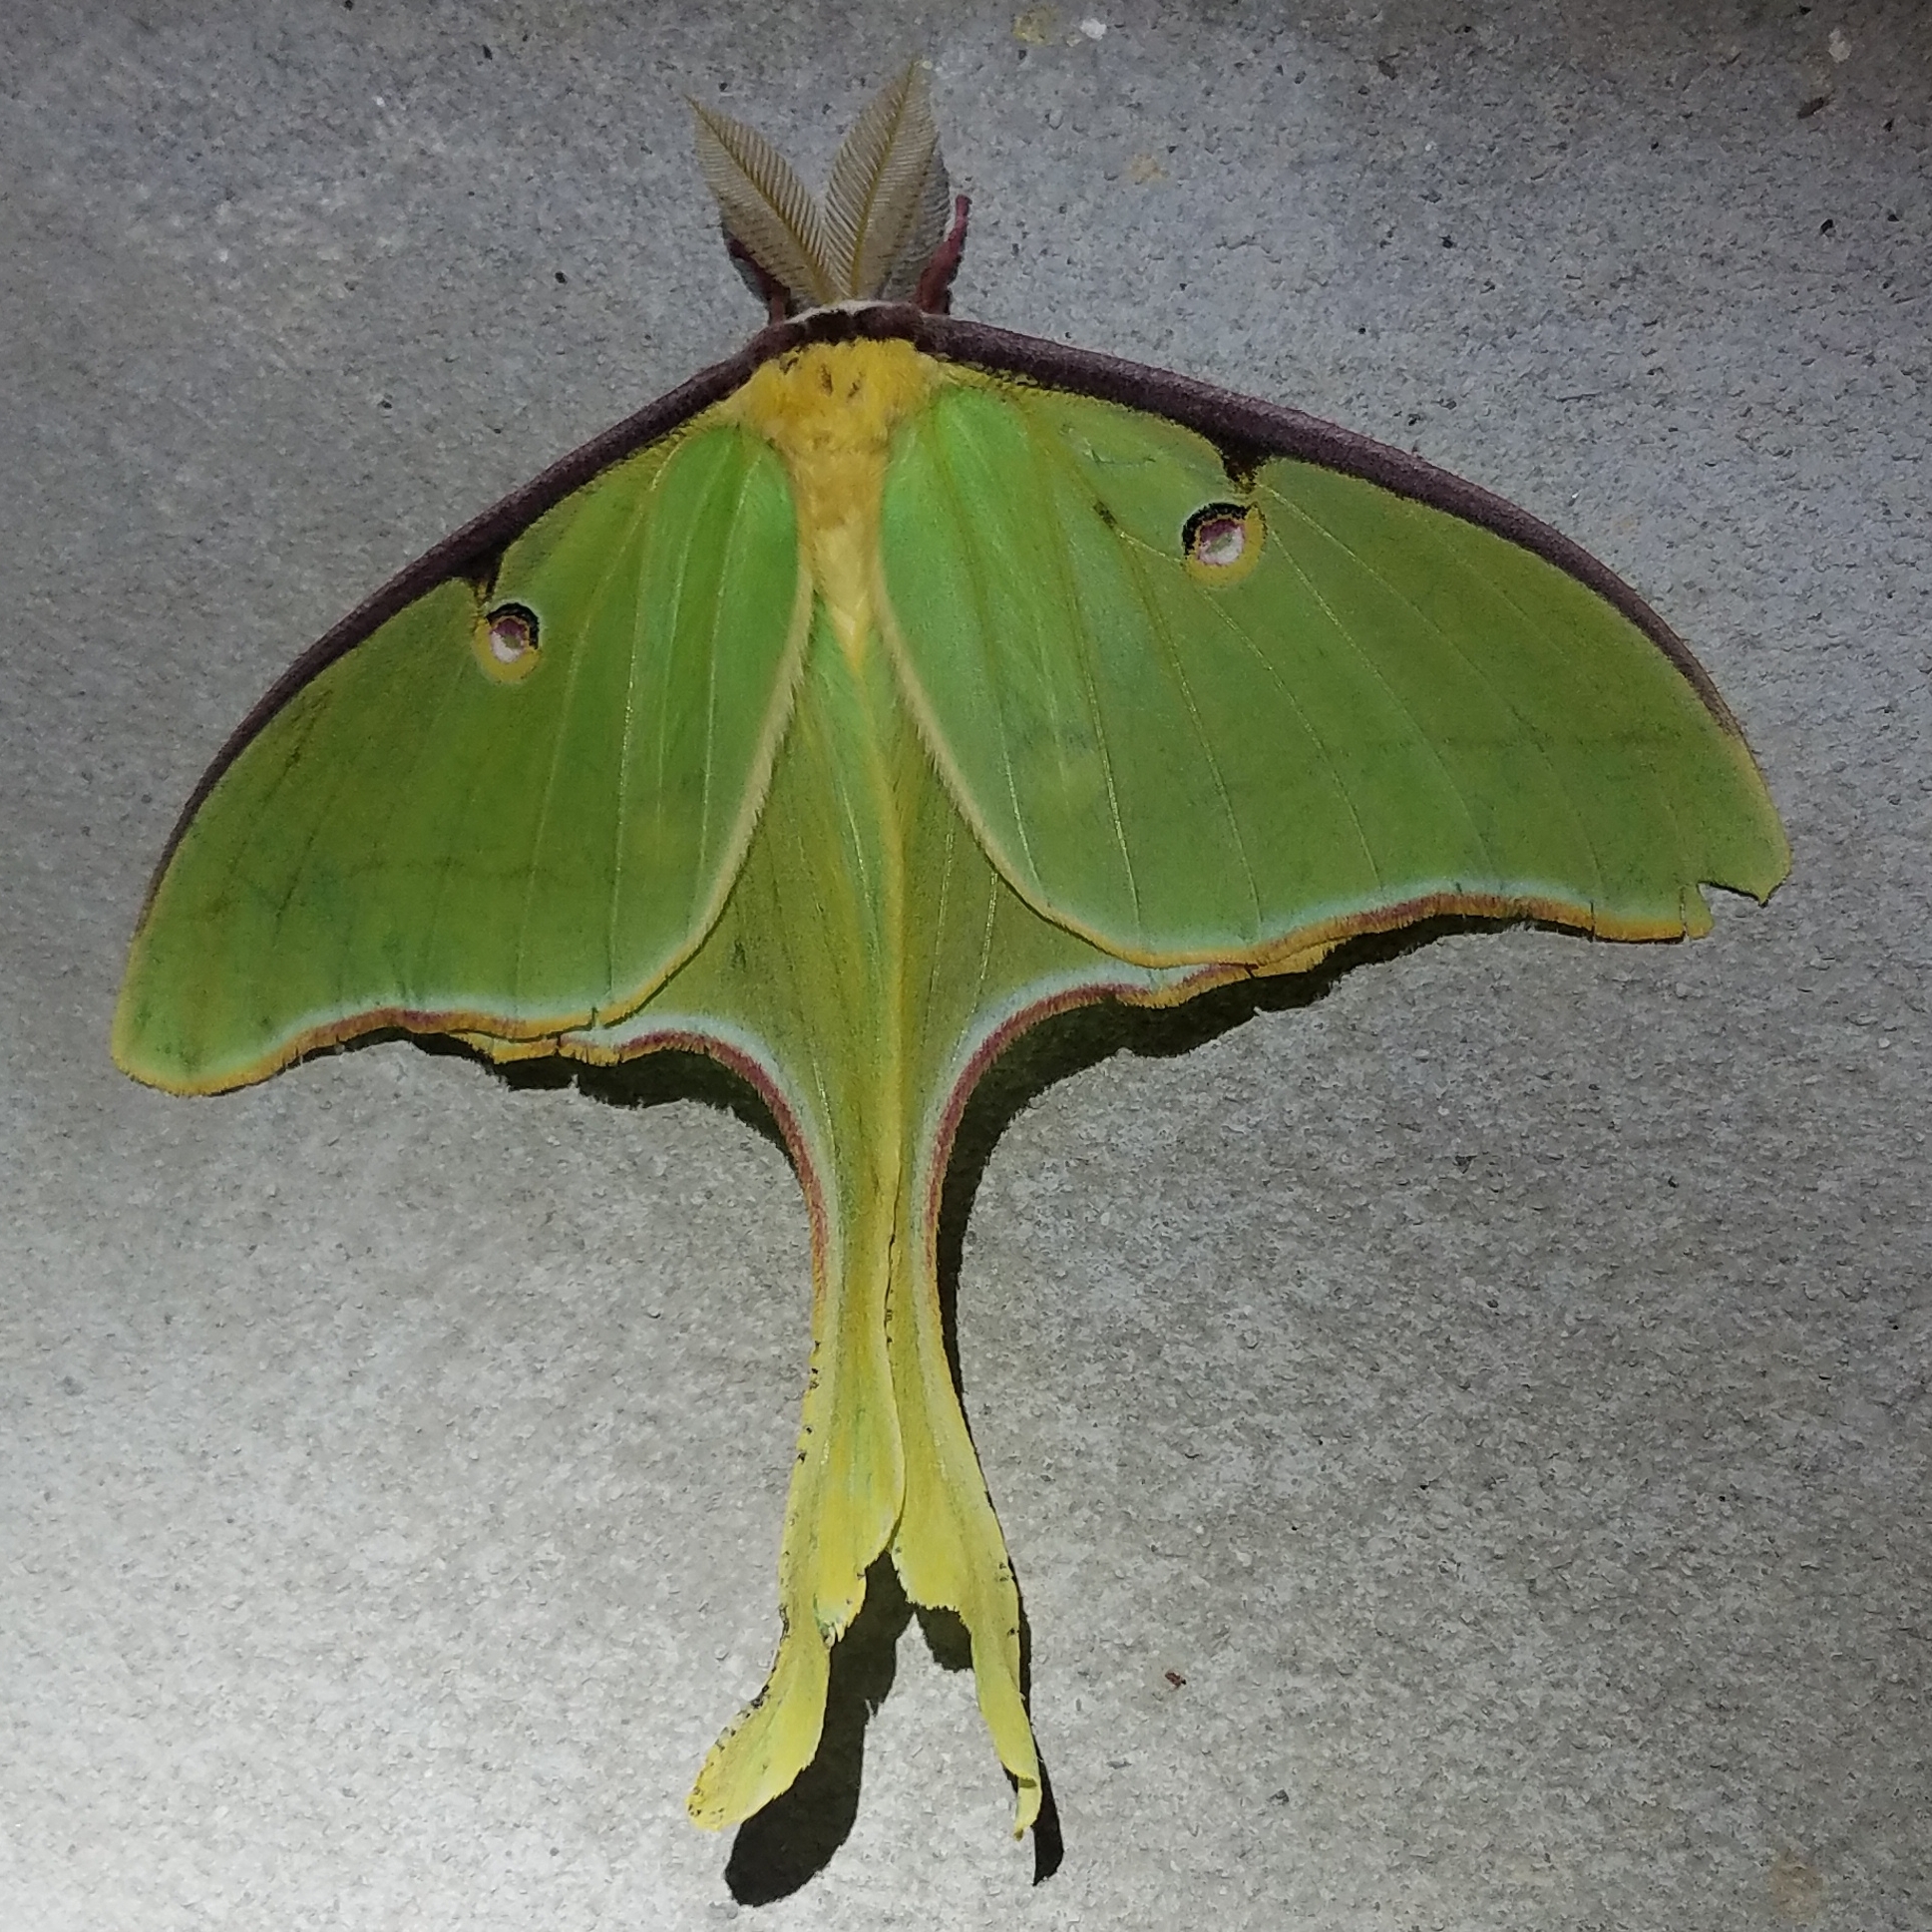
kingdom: Animalia
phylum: Arthropoda
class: Insecta
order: Lepidoptera
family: Saturniidae
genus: Actias
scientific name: Actias luna
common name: Luna moth
